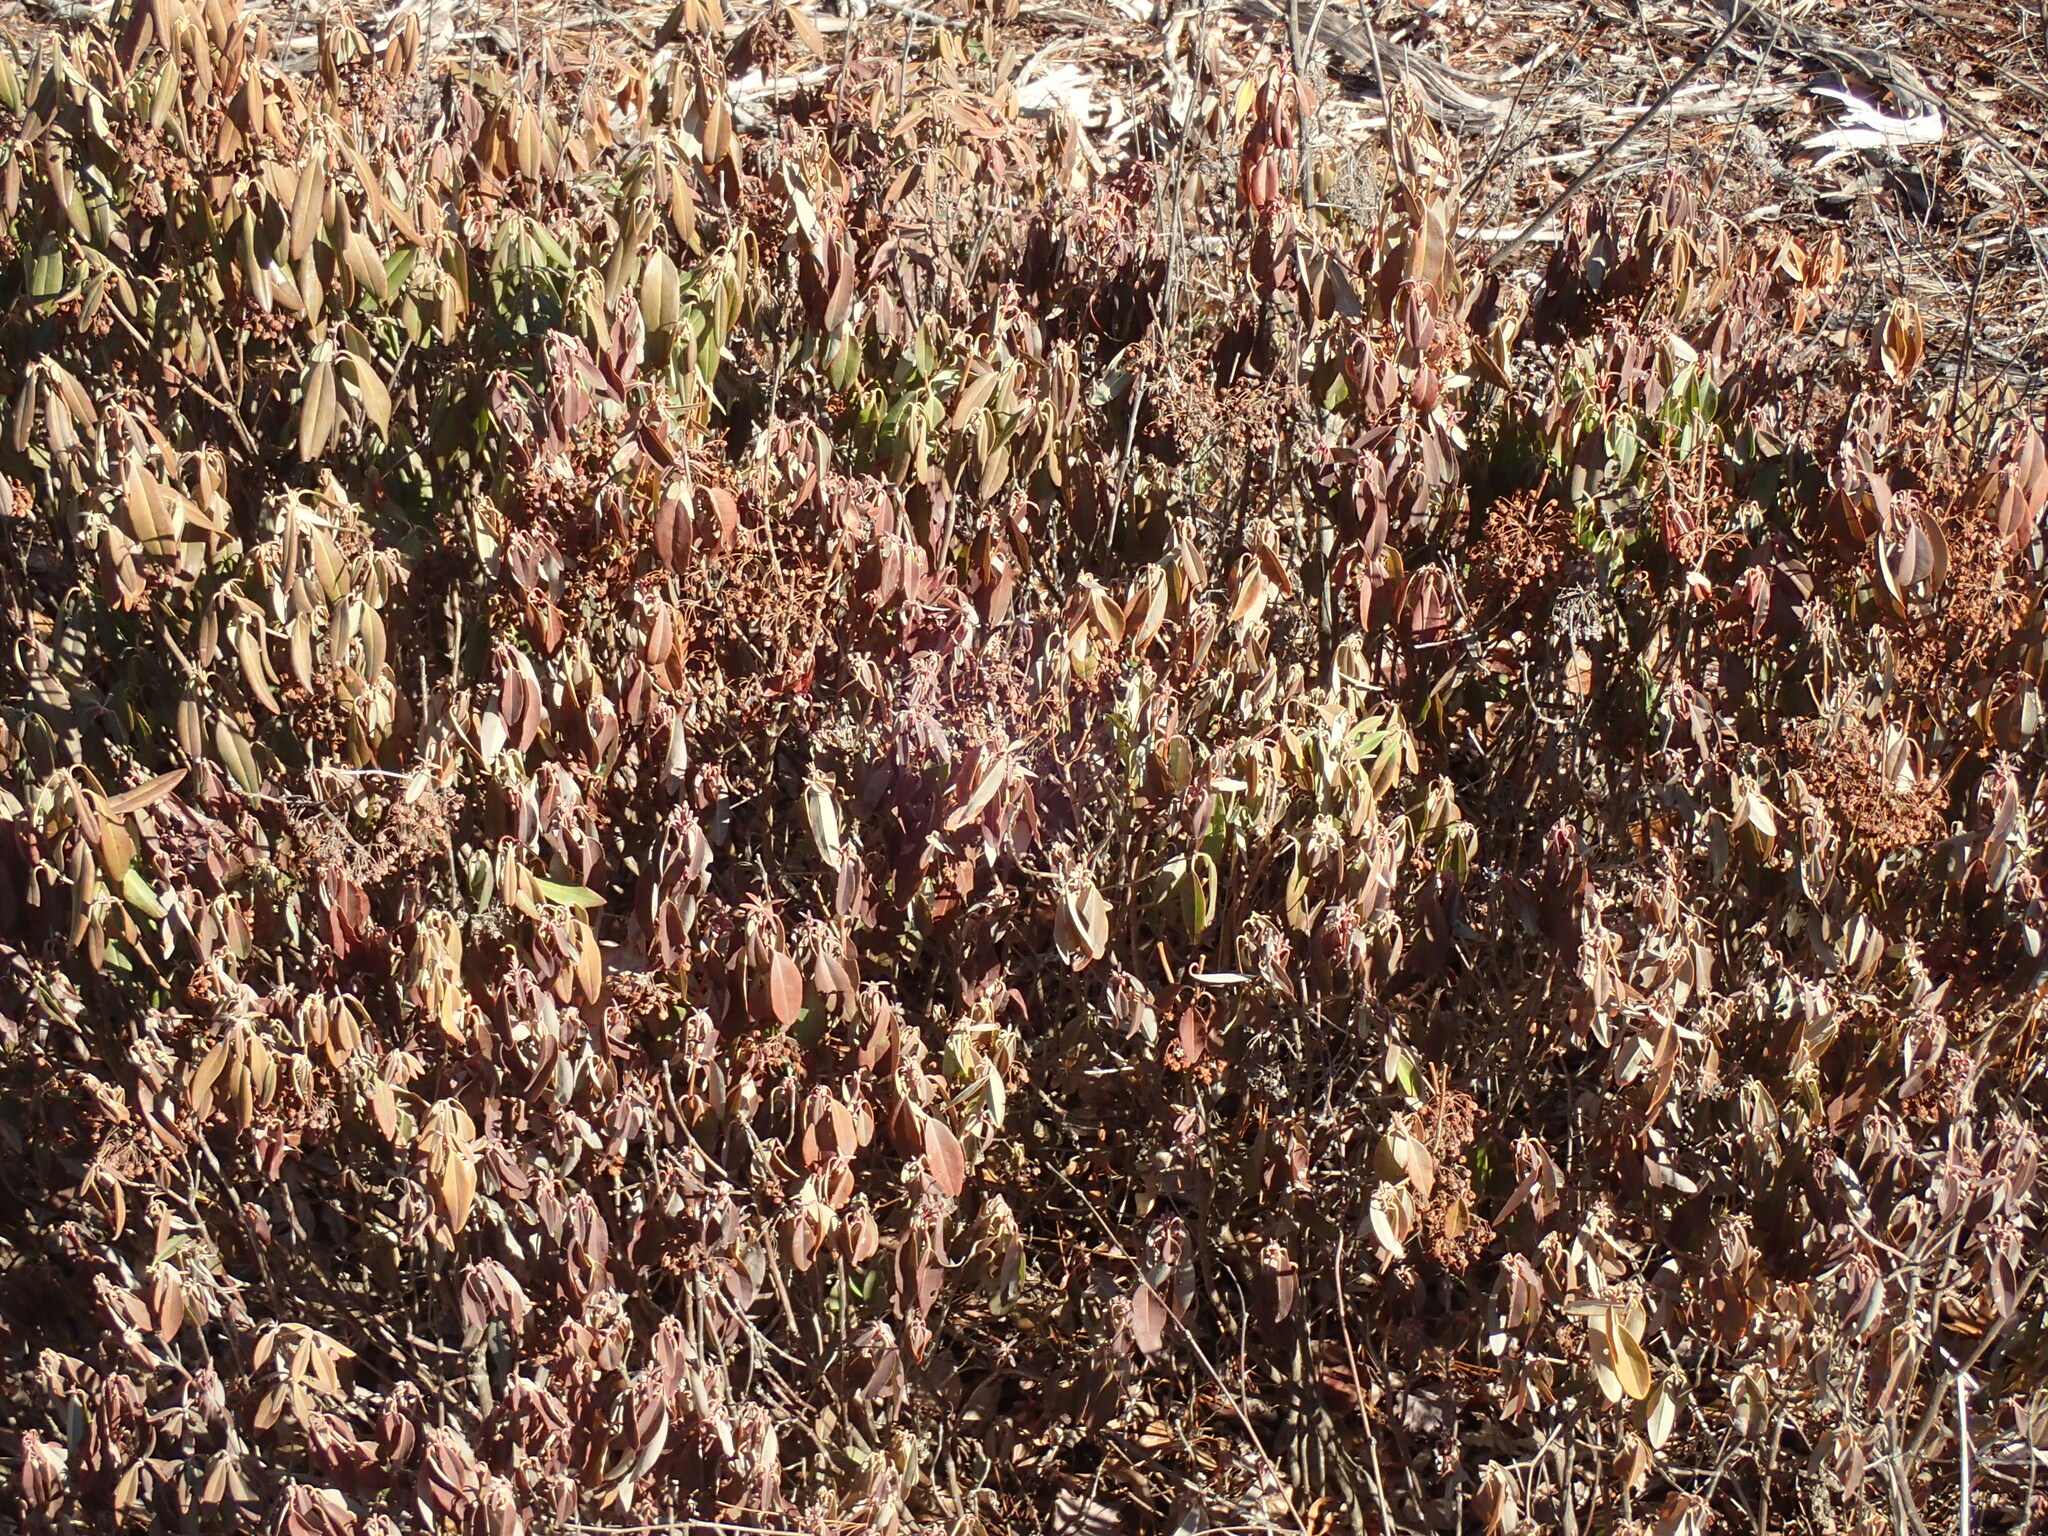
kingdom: Plantae
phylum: Tracheophyta
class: Magnoliopsida
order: Ericales
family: Ericaceae
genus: Kalmia
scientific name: Kalmia angustifolia
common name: Sheep-laurel
